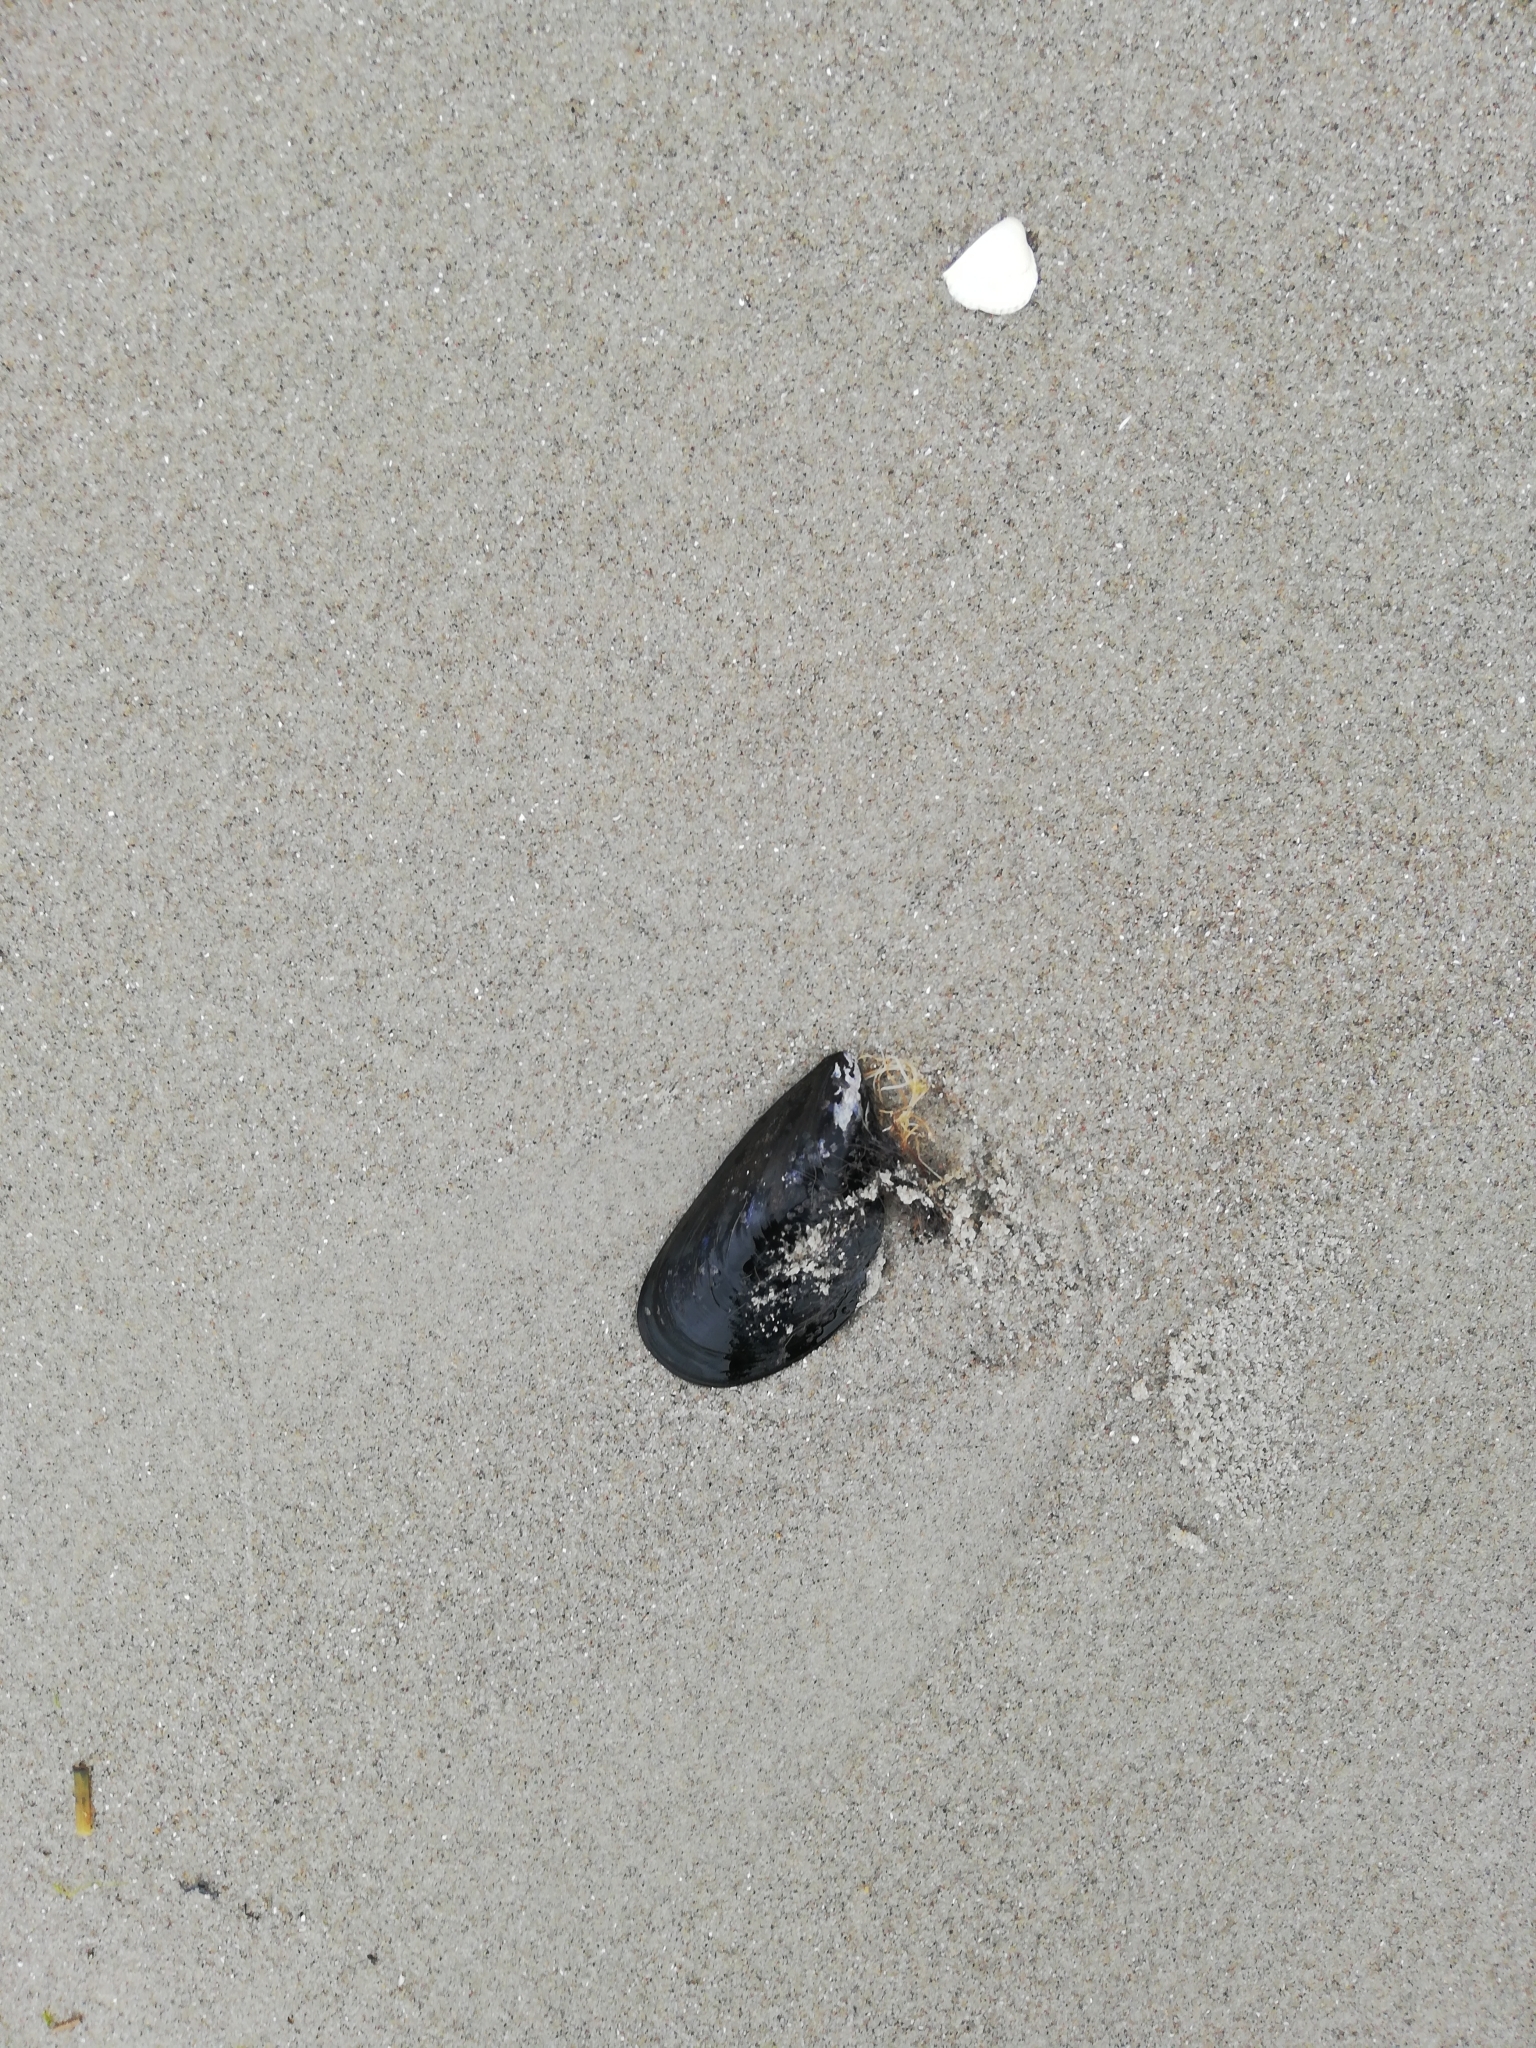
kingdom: Animalia
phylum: Mollusca
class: Bivalvia
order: Mytilida
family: Mytilidae
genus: Mytilus
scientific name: Mytilus edulis
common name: Blue mussel
